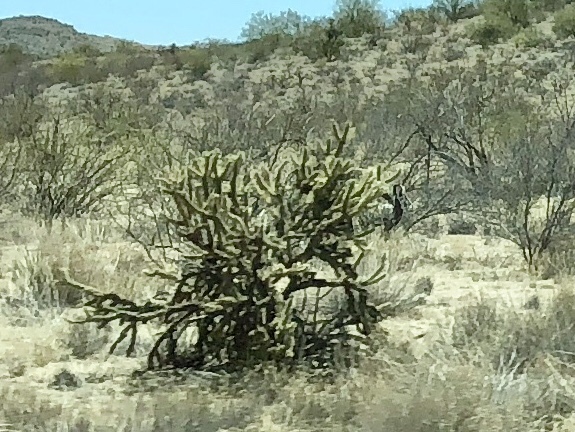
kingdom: Plantae
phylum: Tracheophyta
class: Magnoliopsida
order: Caryophyllales
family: Cactaceae
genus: Cylindropuntia
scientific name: Cylindropuntia acanthocarpa
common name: Buckhorn cholla
